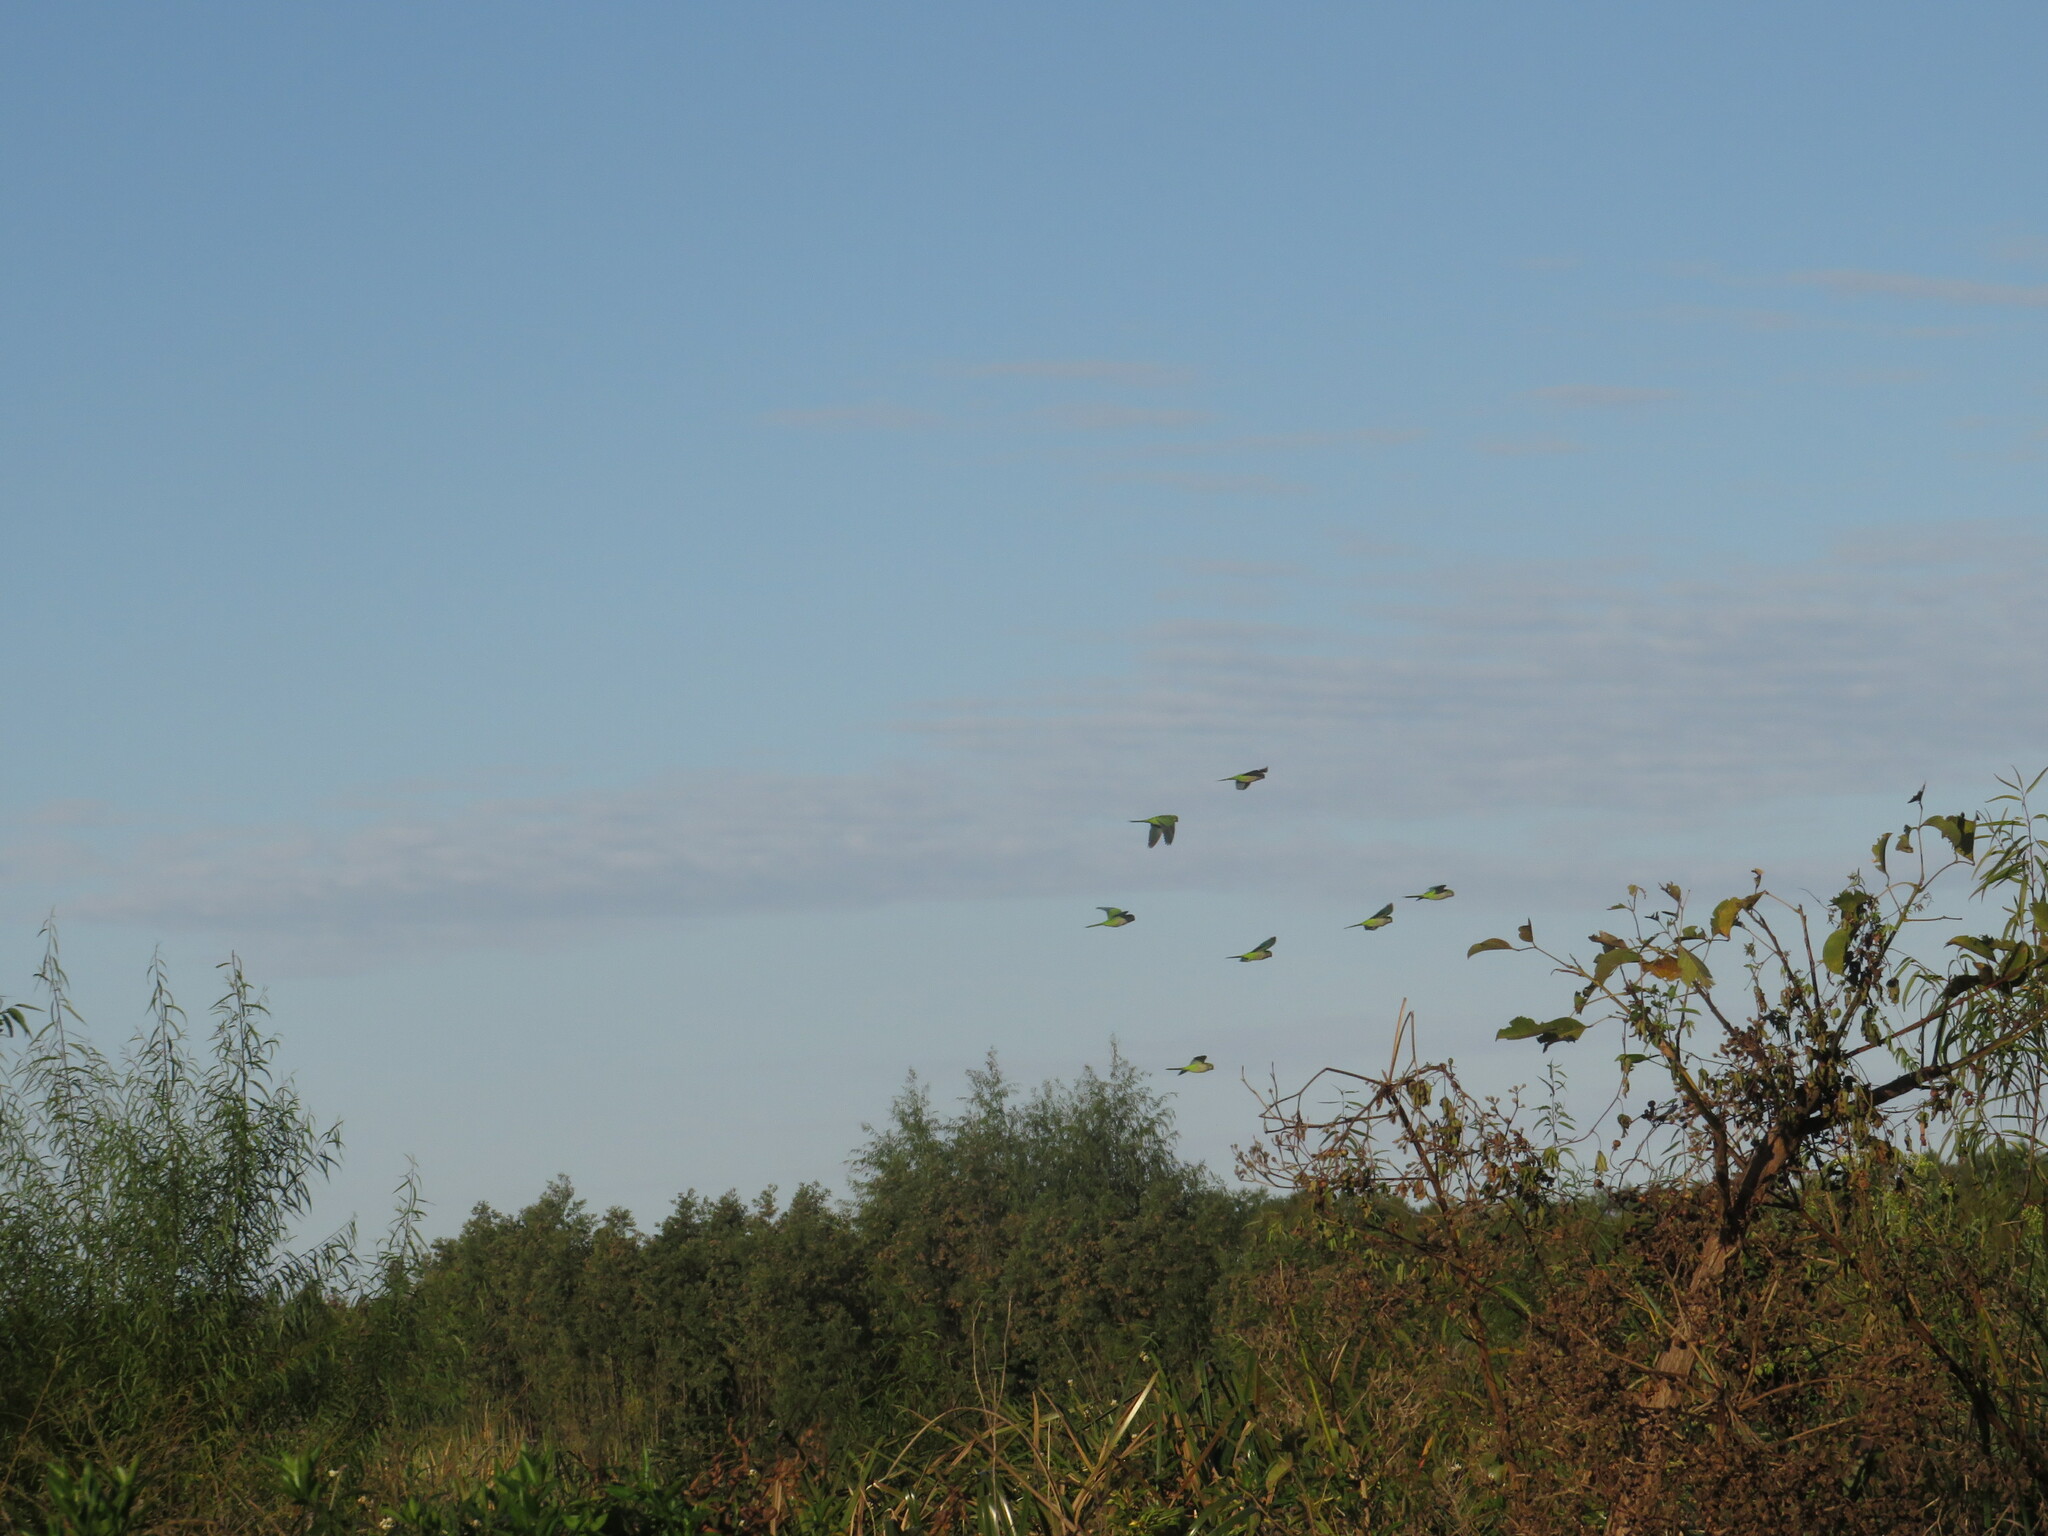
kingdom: Animalia
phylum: Chordata
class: Aves
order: Psittaciformes
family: Psittacidae
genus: Myiopsitta
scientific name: Myiopsitta monachus
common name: Monk parakeet
